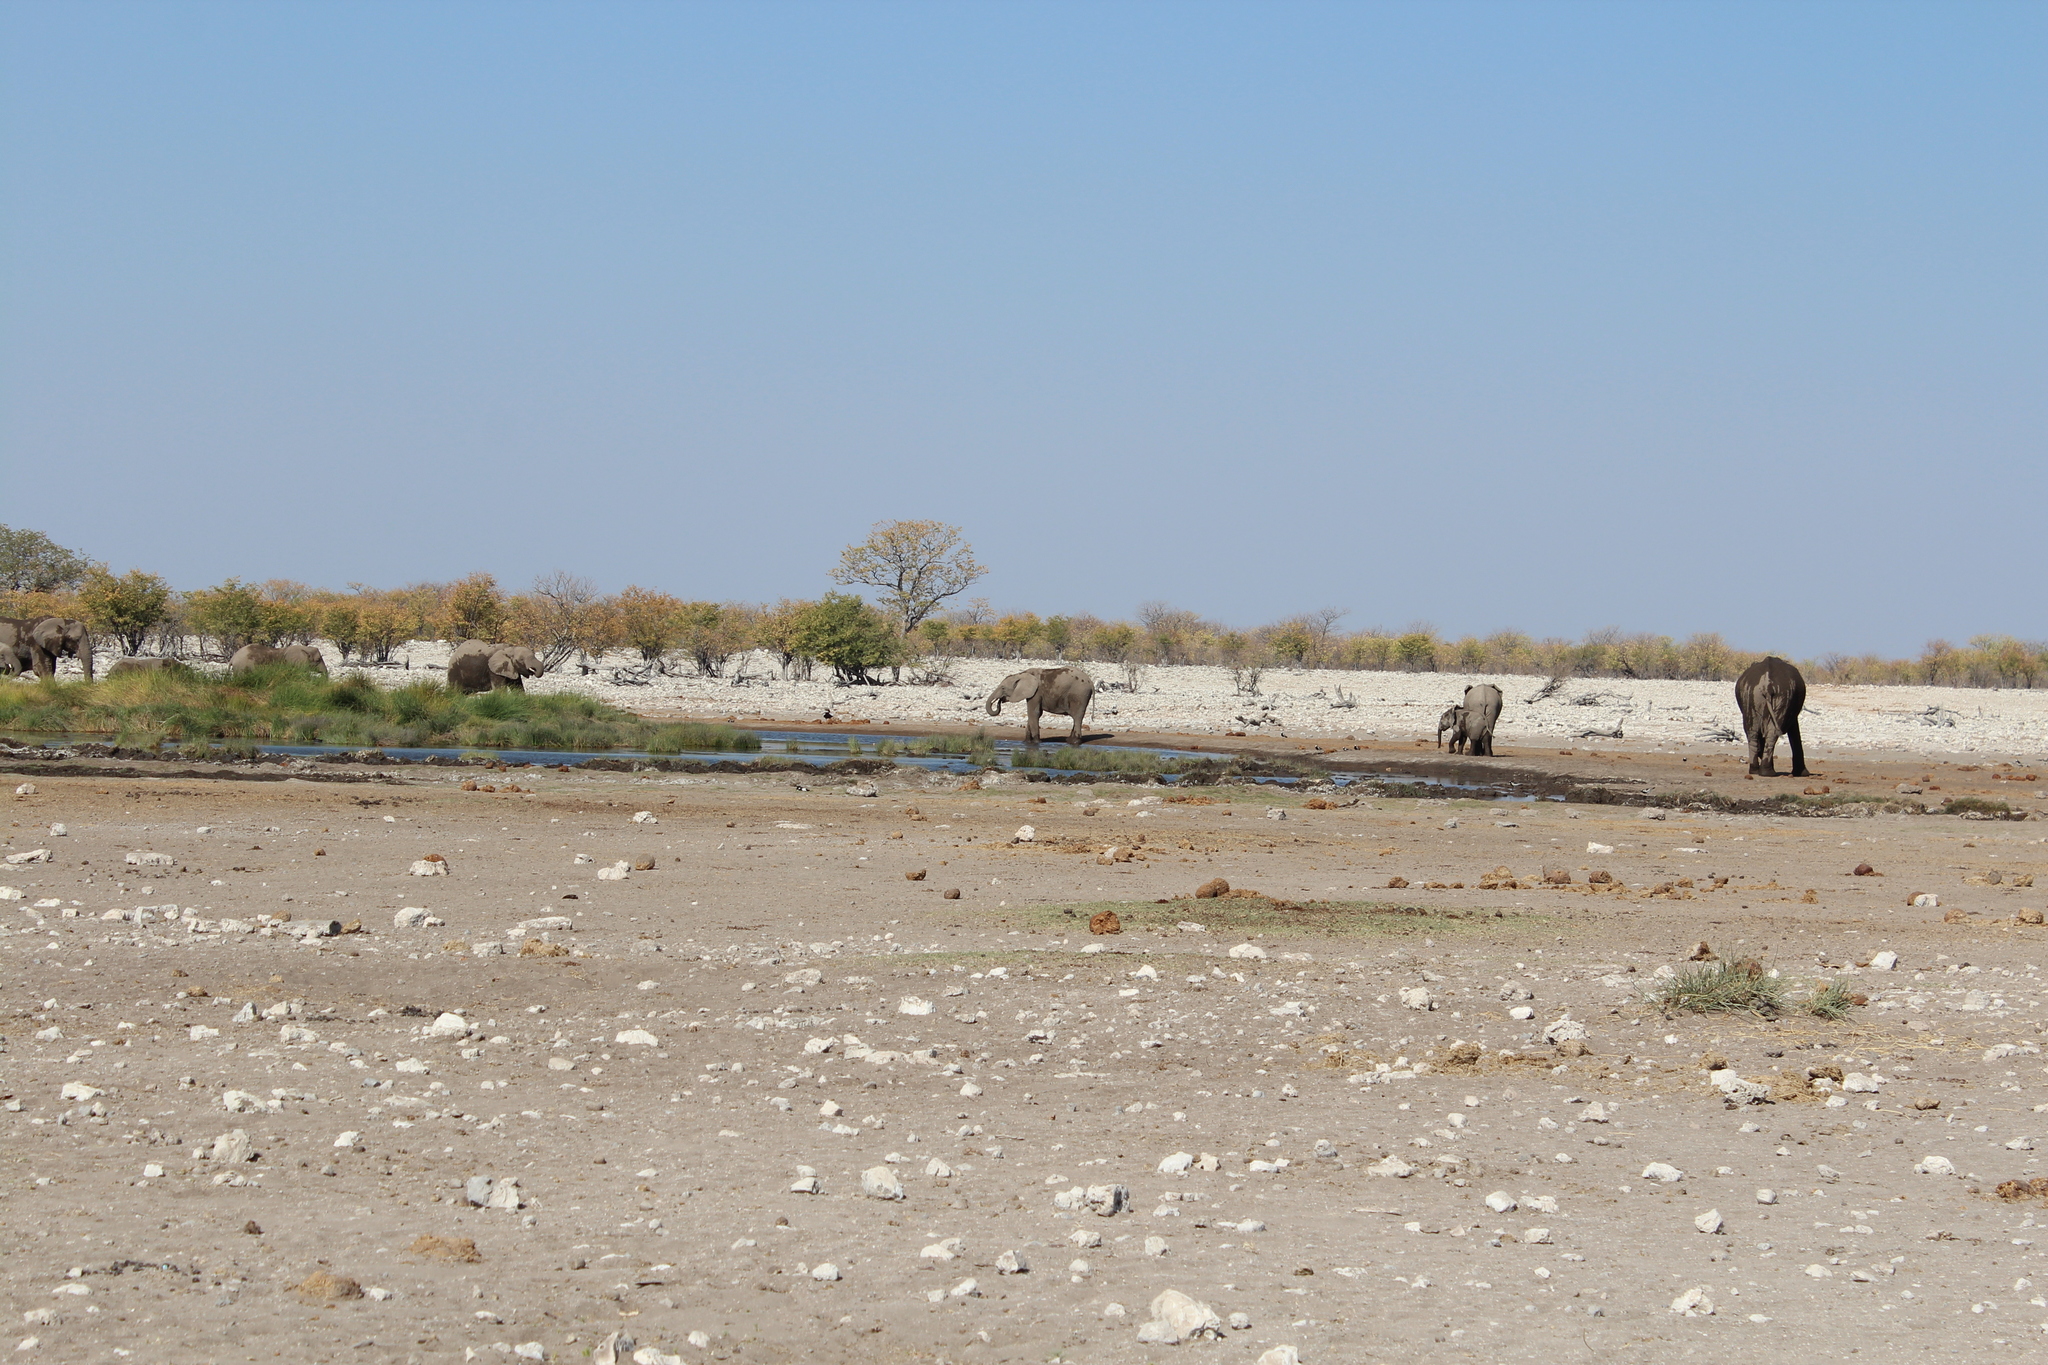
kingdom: Animalia
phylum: Chordata
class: Mammalia
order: Proboscidea
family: Elephantidae
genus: Loxodonta
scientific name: Loxodonta africana
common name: African elephant
